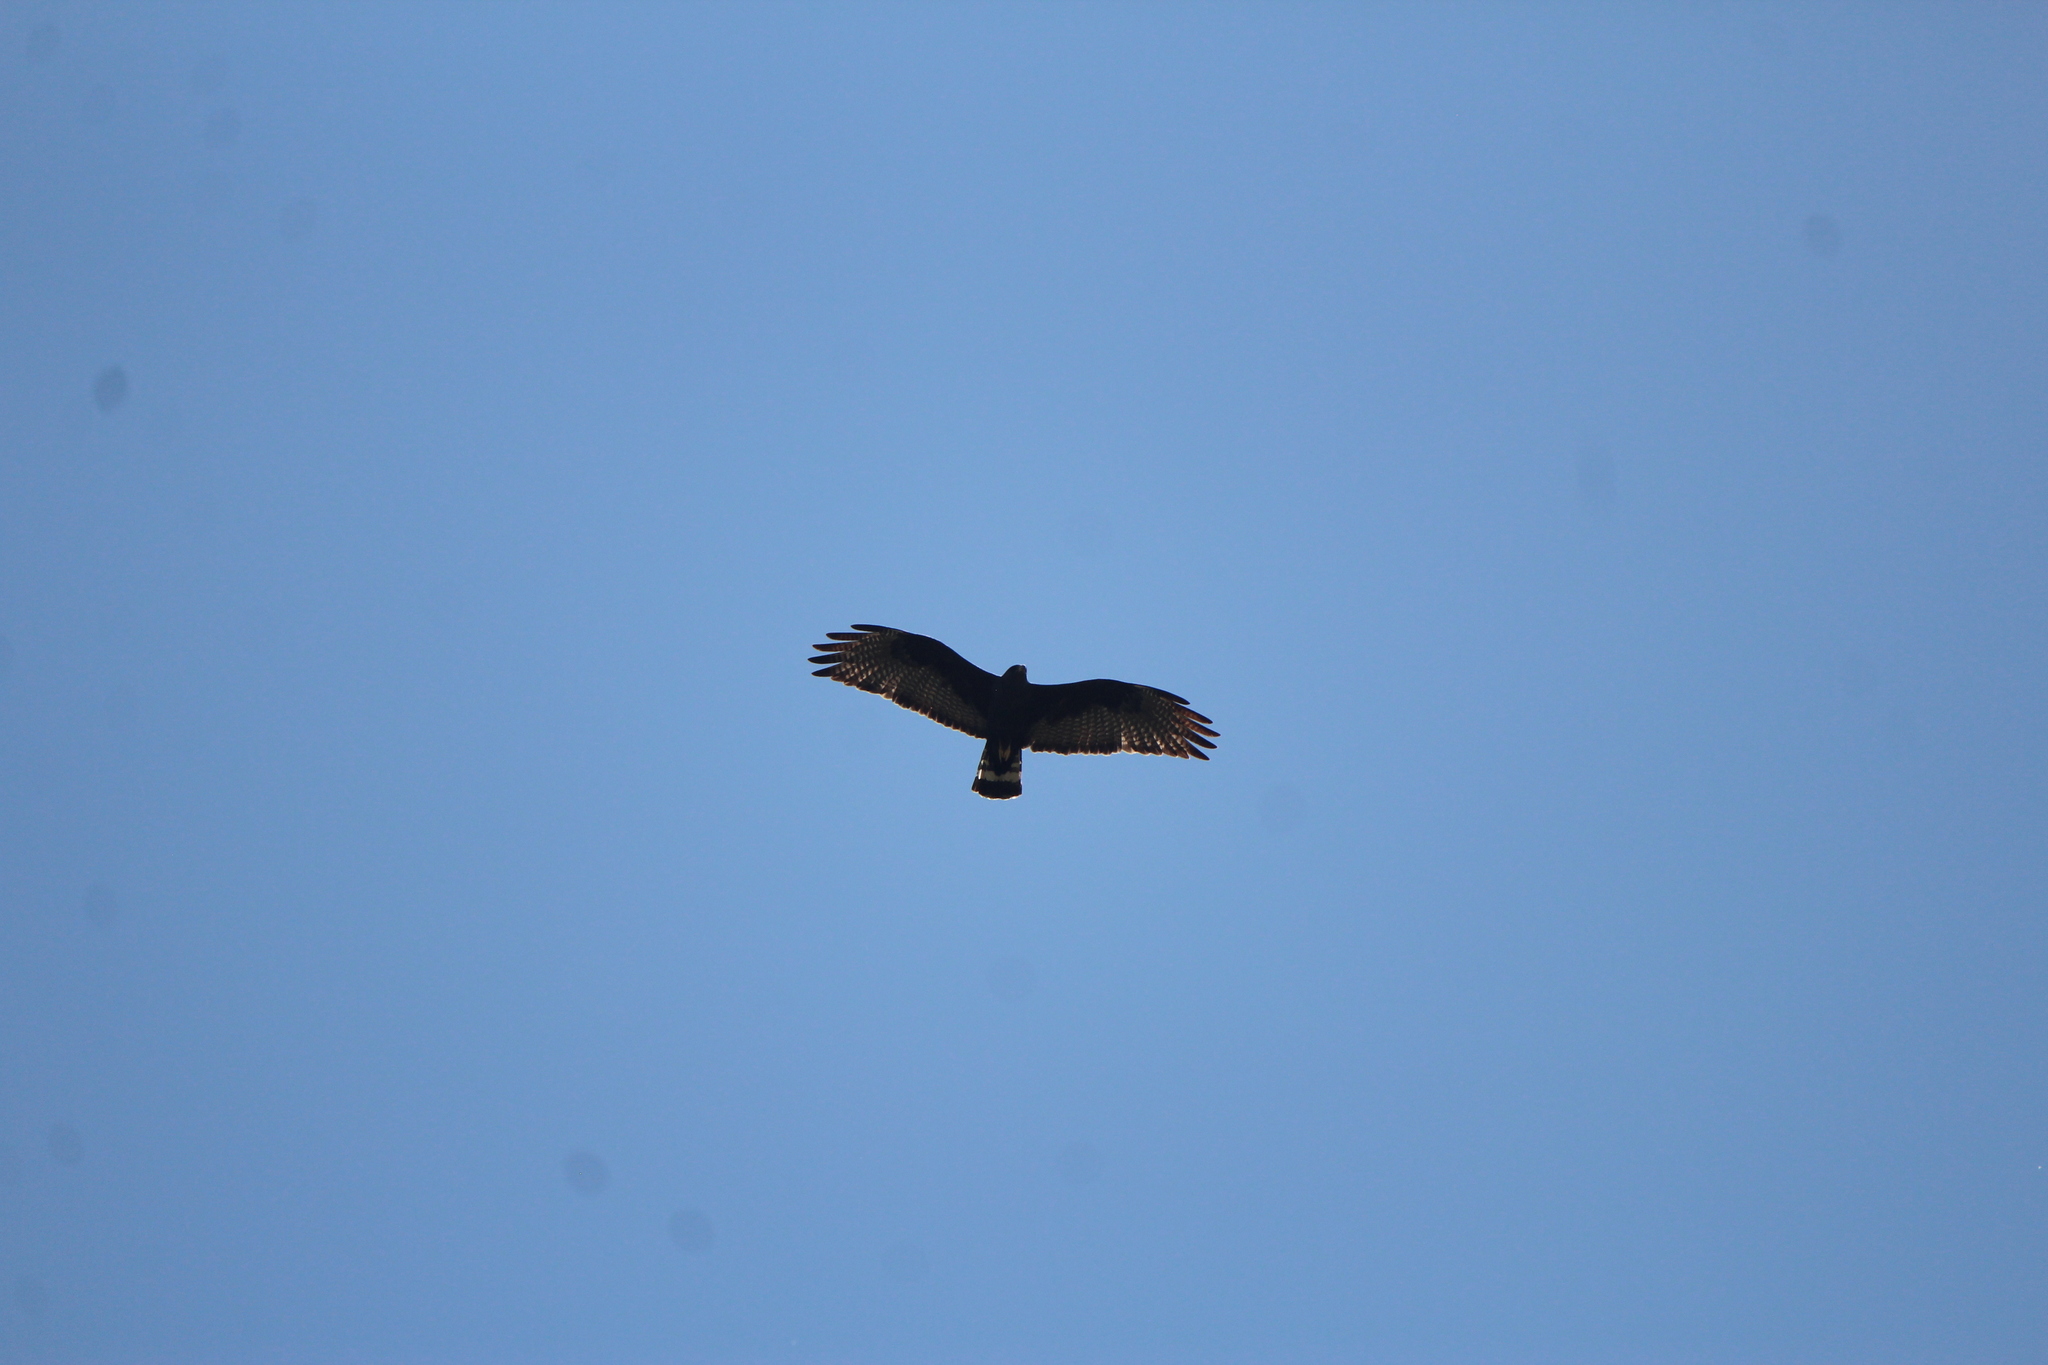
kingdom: Animalia
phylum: Chordata
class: Aves
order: Accipitriformes
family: Accipitridae
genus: Buteo
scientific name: Buteo albonotatus
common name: Zone-tailed hawk
